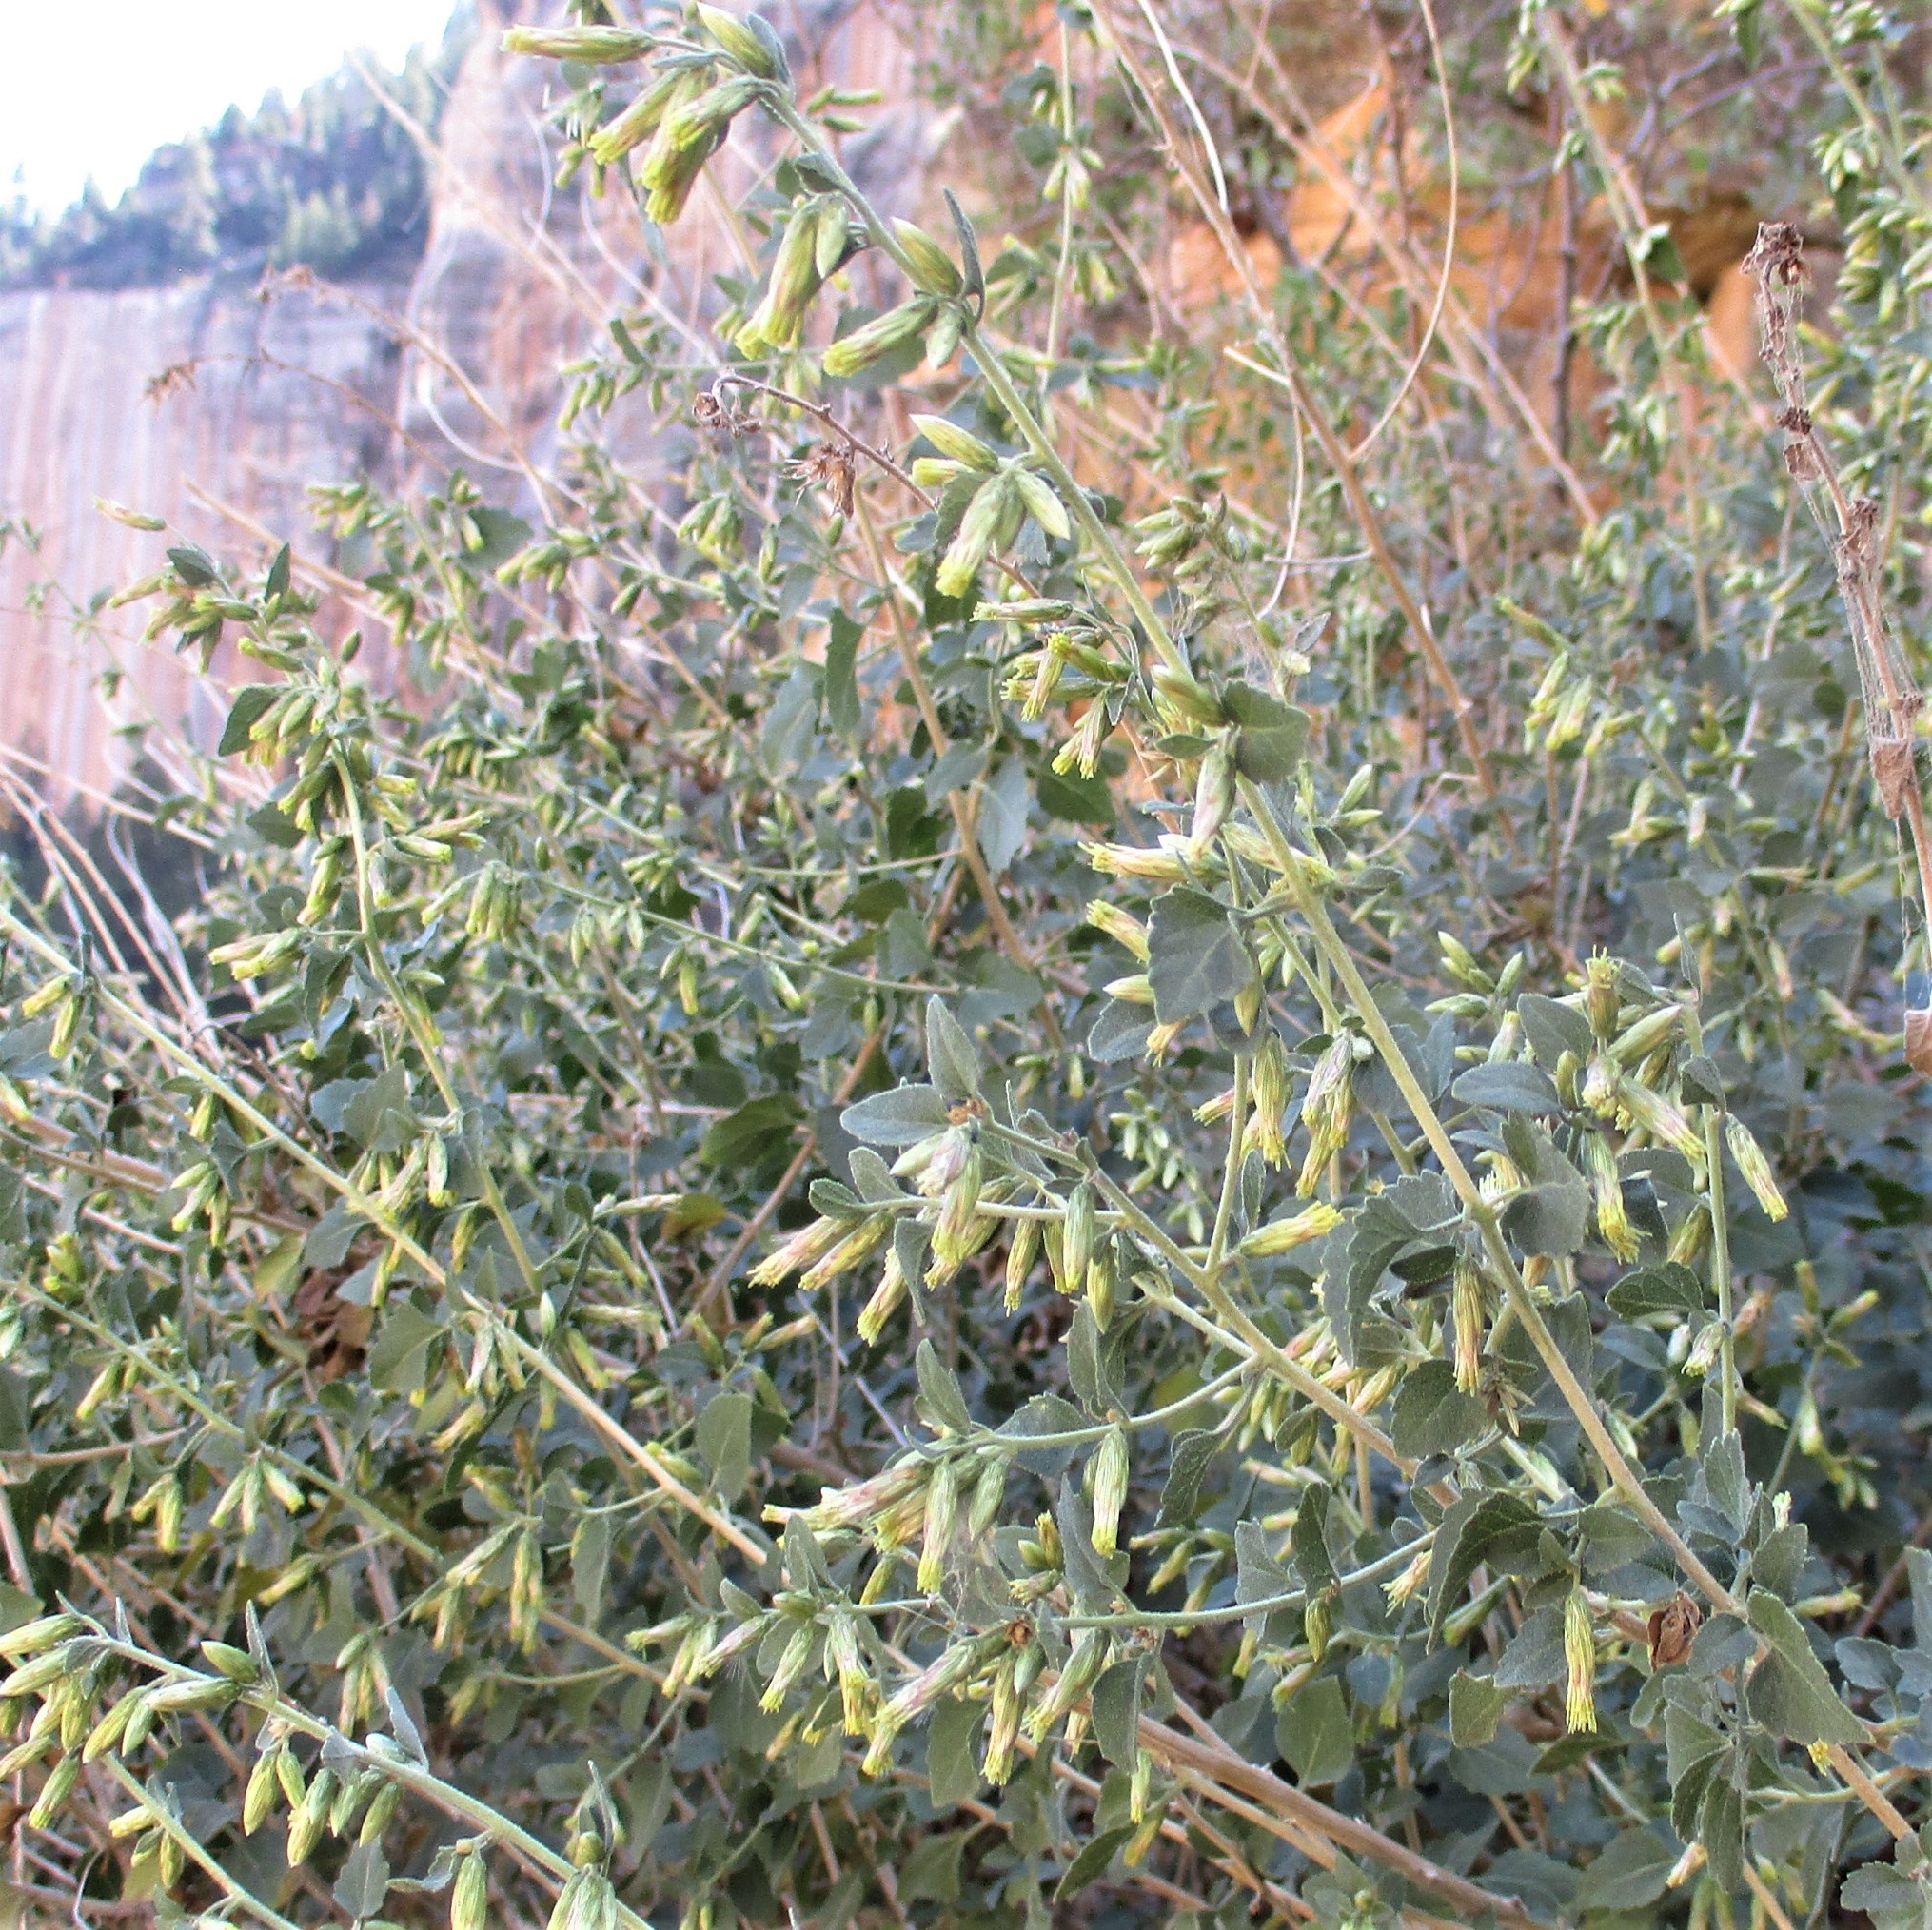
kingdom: Plantae
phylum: Tracheophyta
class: Magnoliopsida
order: Asterales
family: Asteraceae
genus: Brickellia
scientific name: Brickellia californica
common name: California brickellbush
